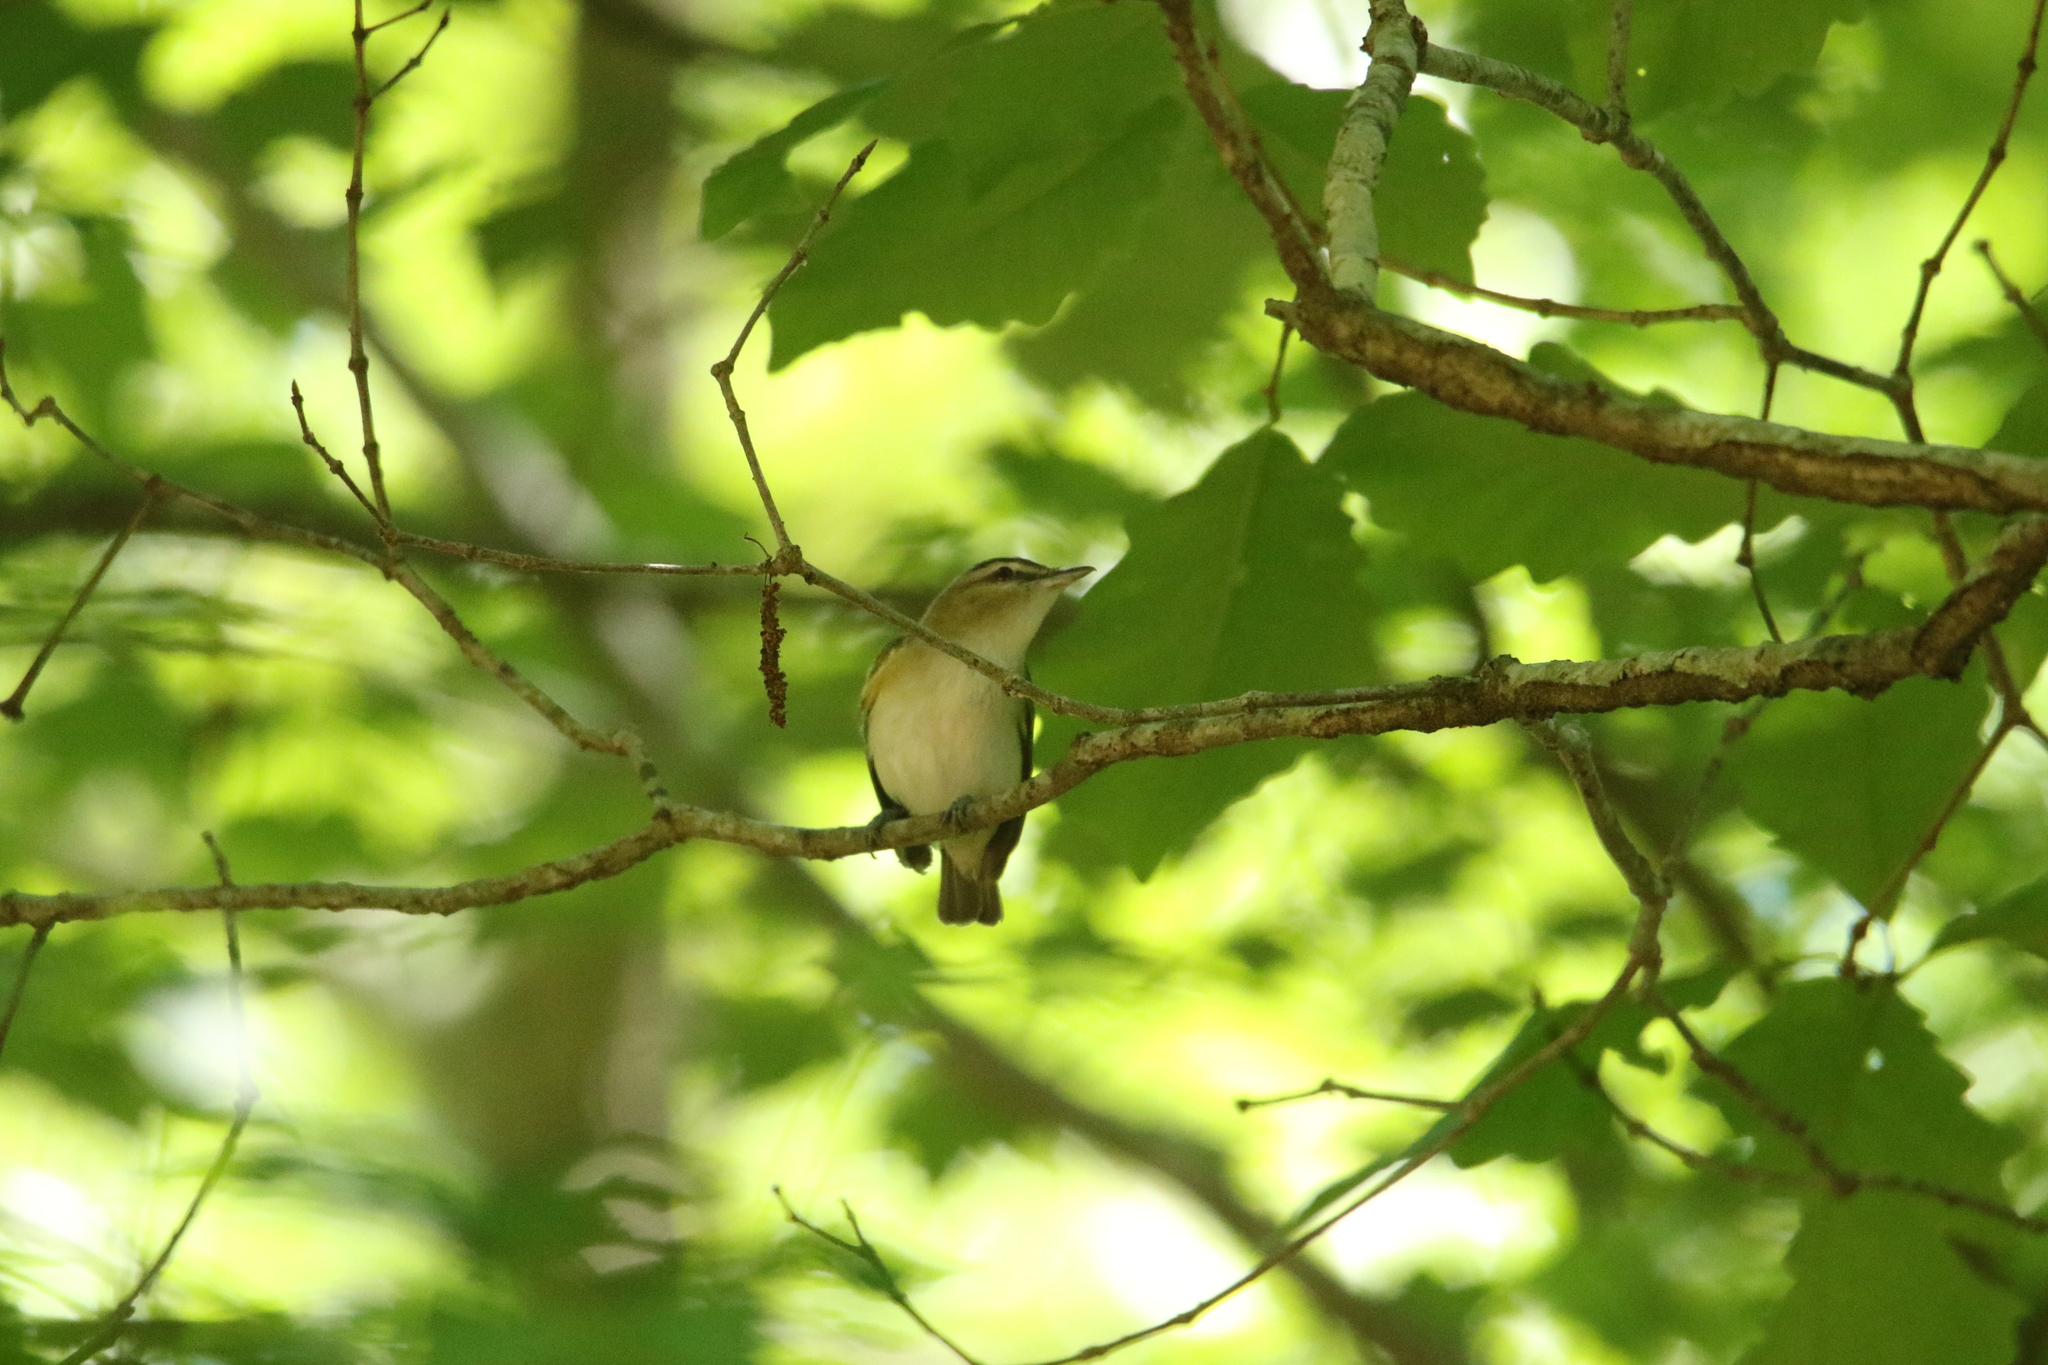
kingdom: Animalia
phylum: Chordata
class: Aves
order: Passeriformes
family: Vireonidae
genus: Vireo
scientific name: Vireo olivaceus
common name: Red-eyed vireo
